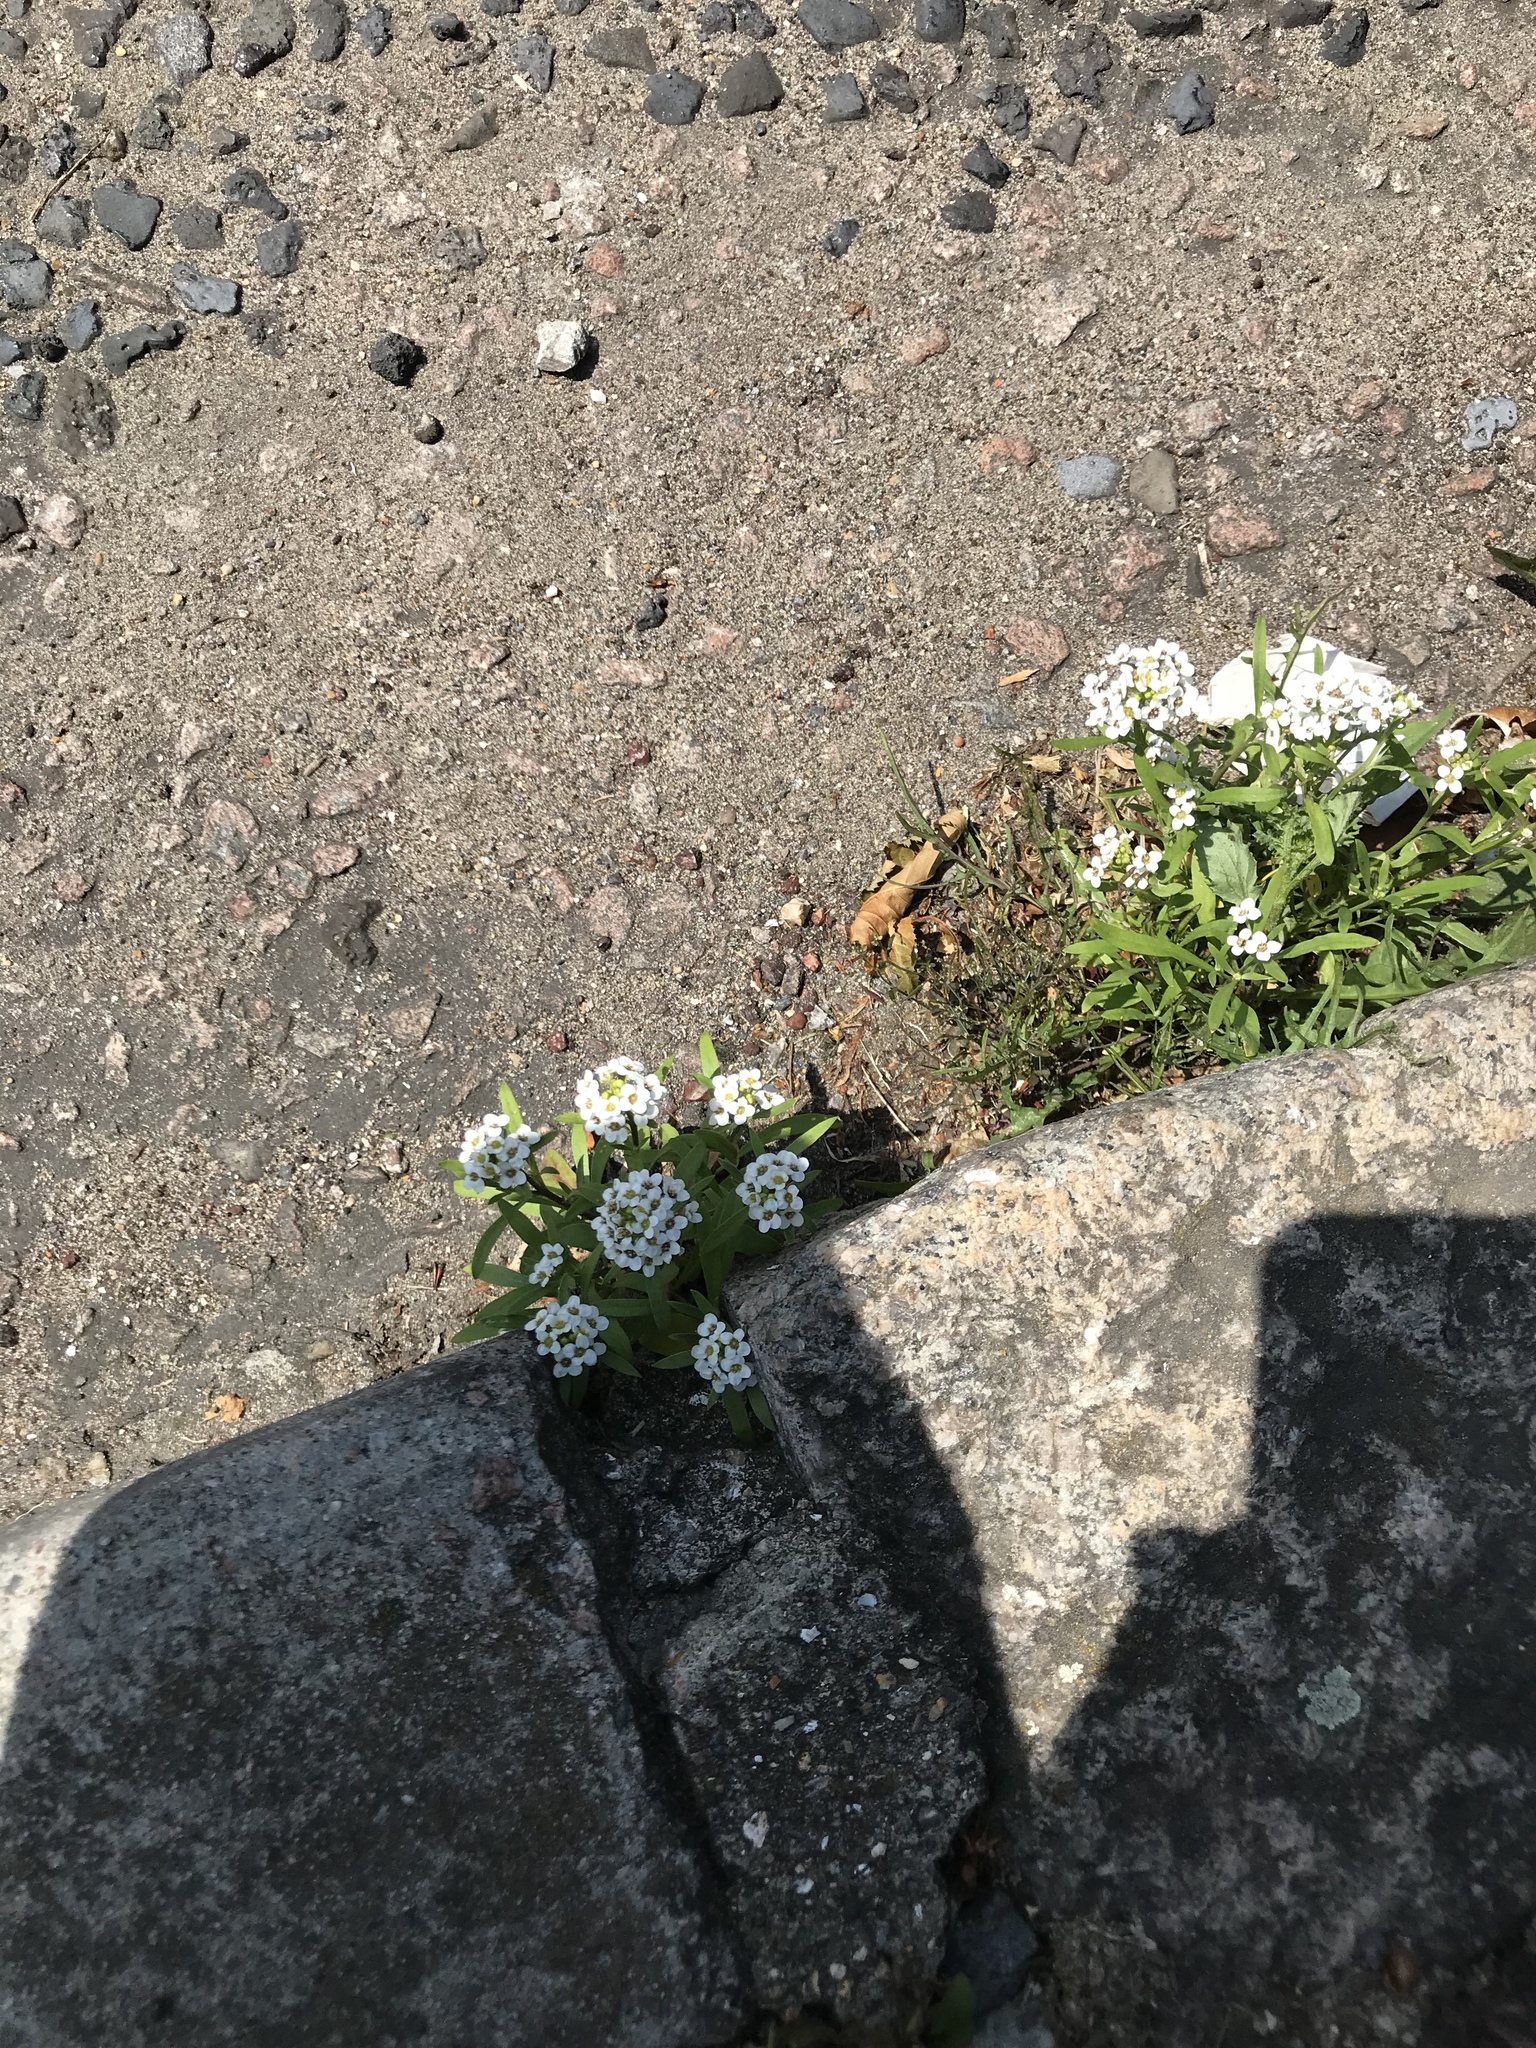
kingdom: Plantae
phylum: Tracheophyta
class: Magnoliopsida
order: Brassicales
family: Brassicaceae
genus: Lobularia
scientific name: Lobularia maritima
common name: Sweet alison
